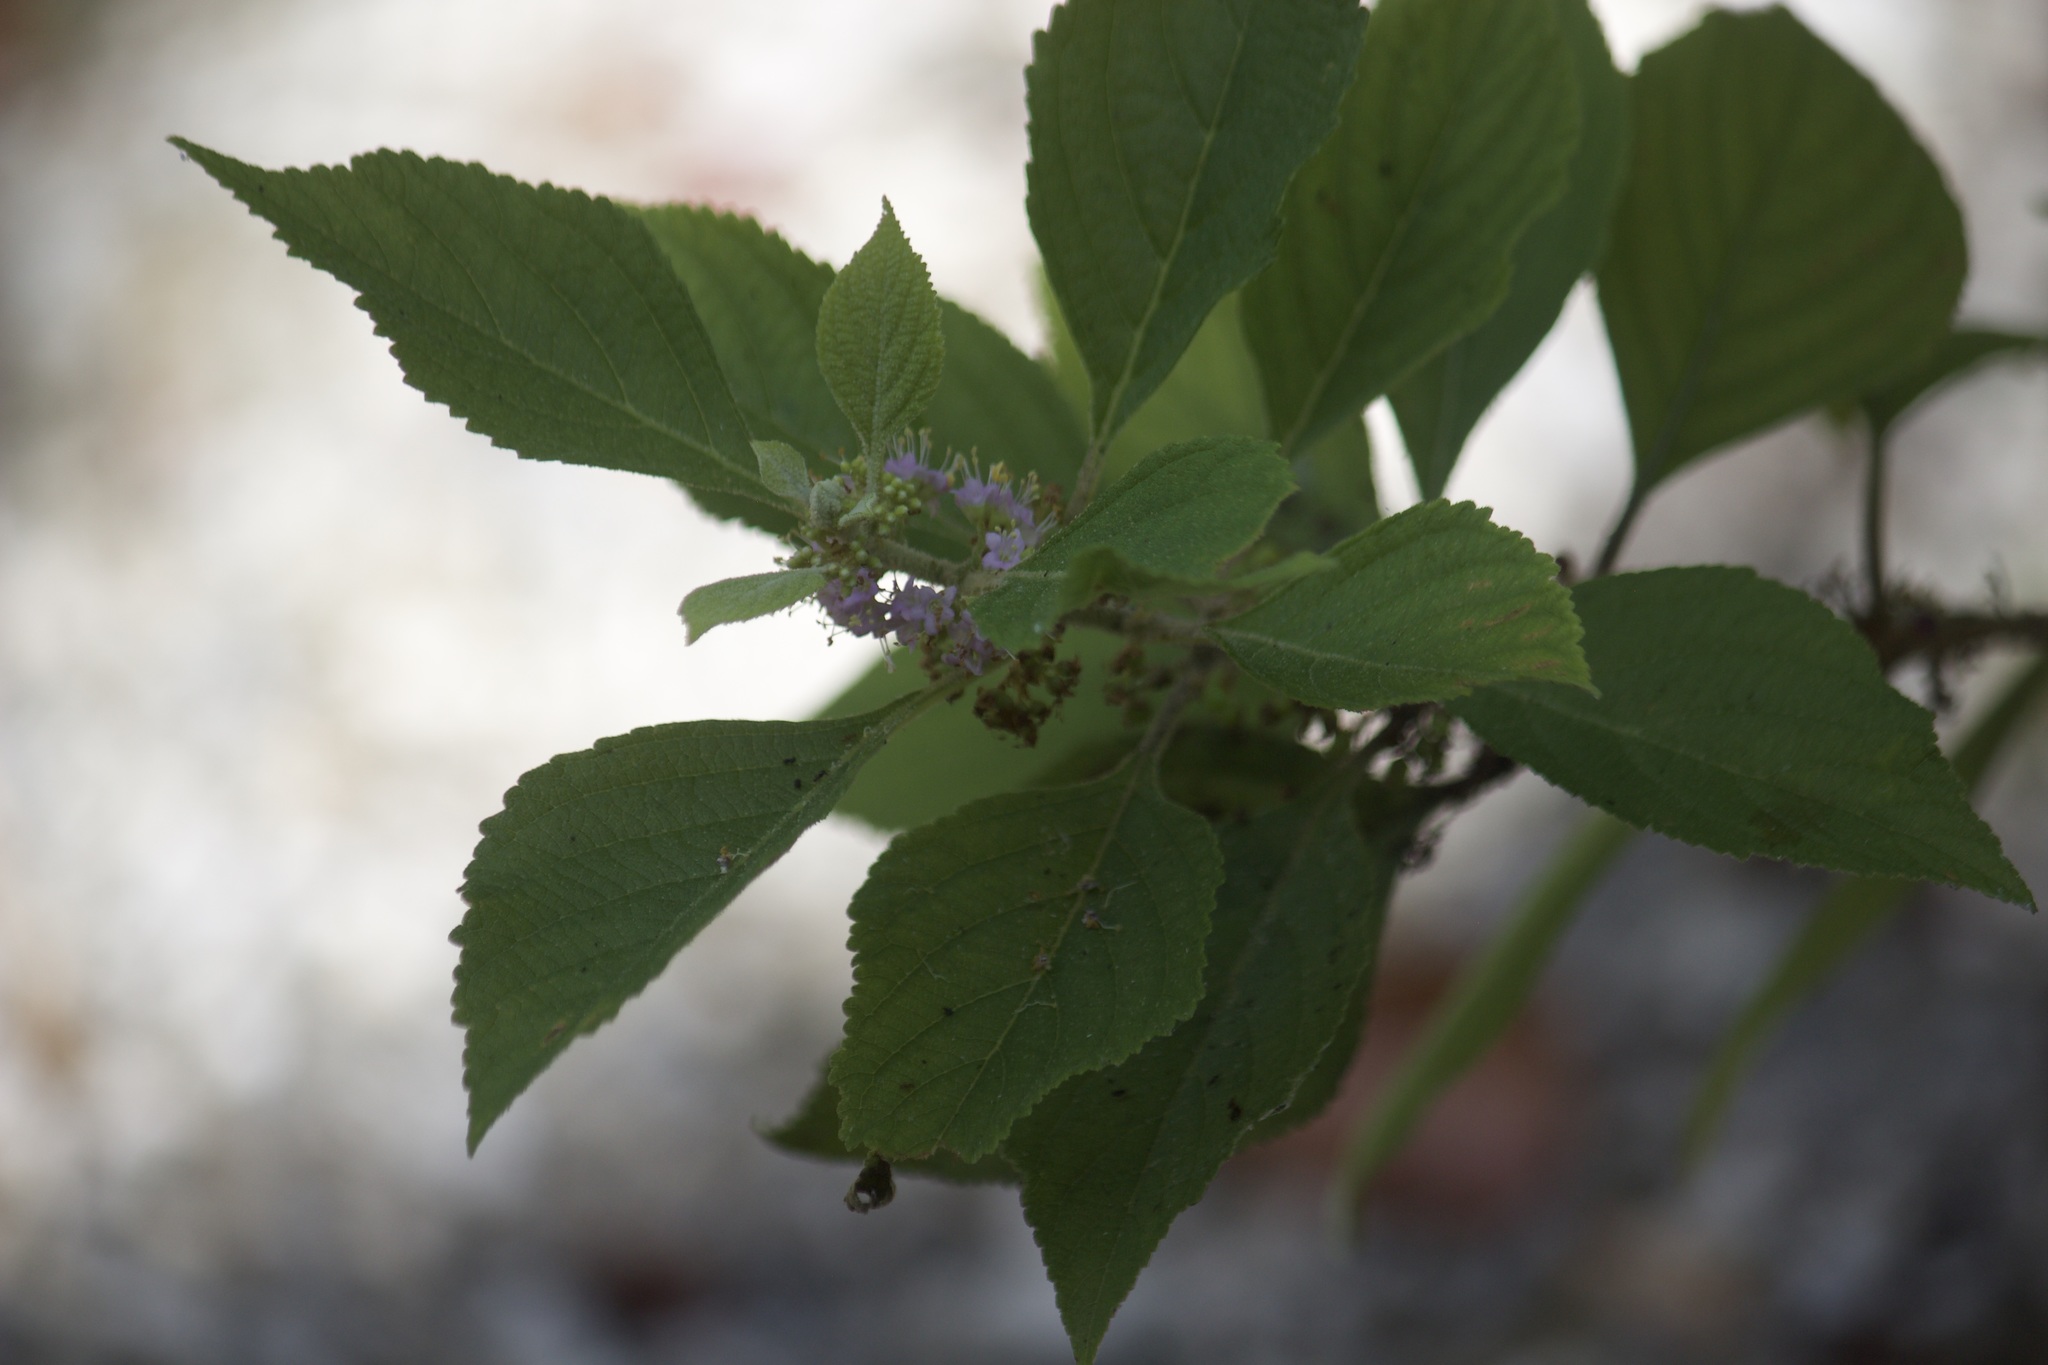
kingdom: Plantae
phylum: Tracheophyta
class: Magnoliopsida
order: Lamiales
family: Lamiaceae
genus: Callicarpa
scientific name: Callicarpa americana
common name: American beautyberry
